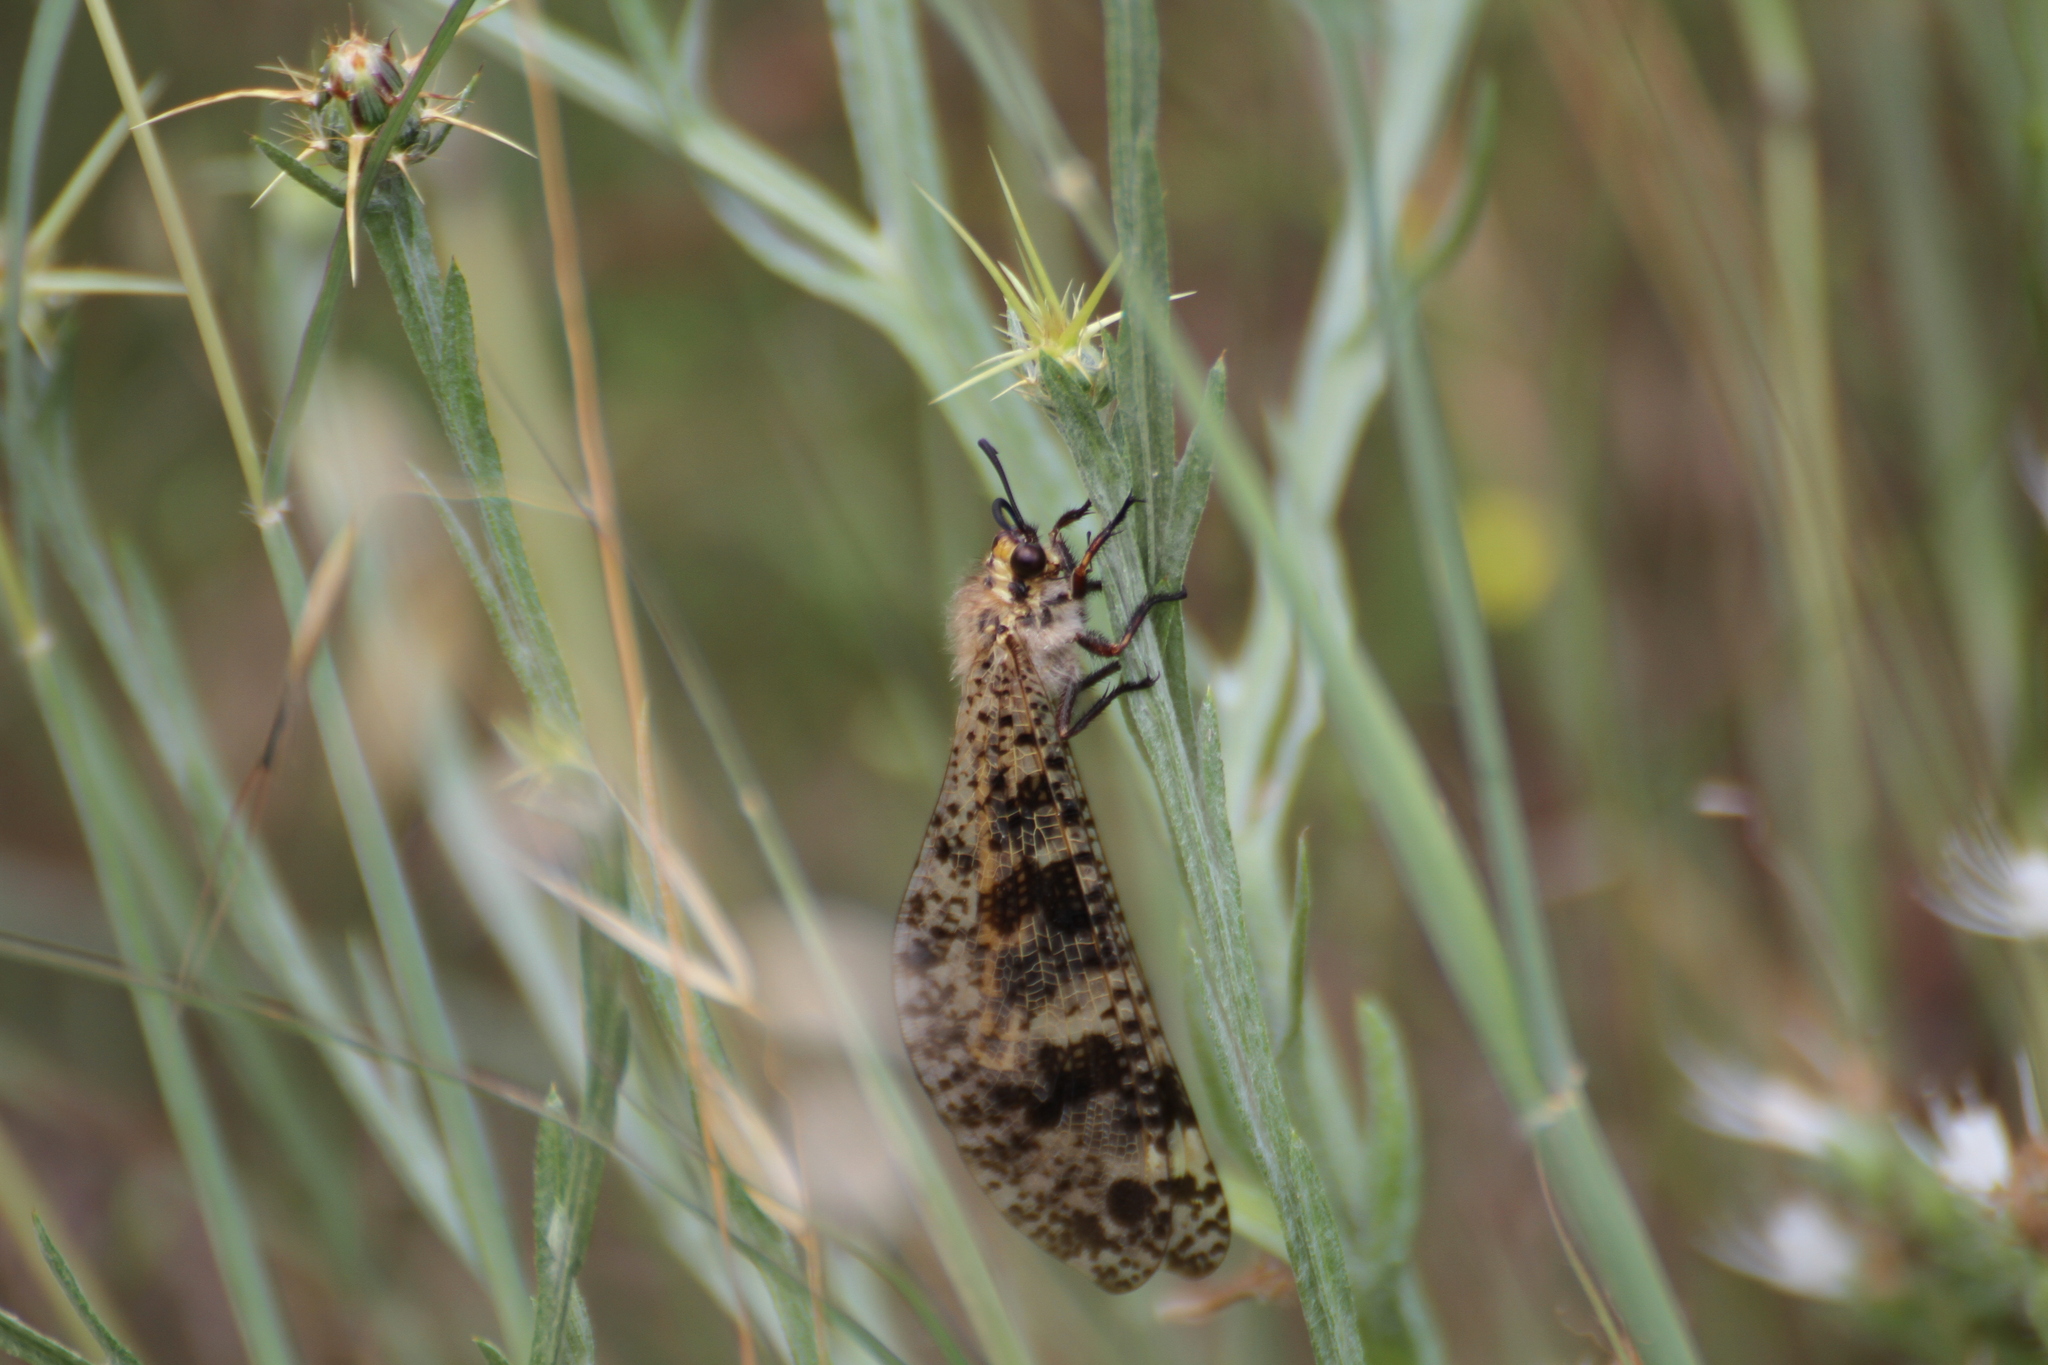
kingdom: Animalia
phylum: Arthropoda
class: Insecta
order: Neuroptera
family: Myrmeleontidae
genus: Palpares
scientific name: Palpares libelluloides
